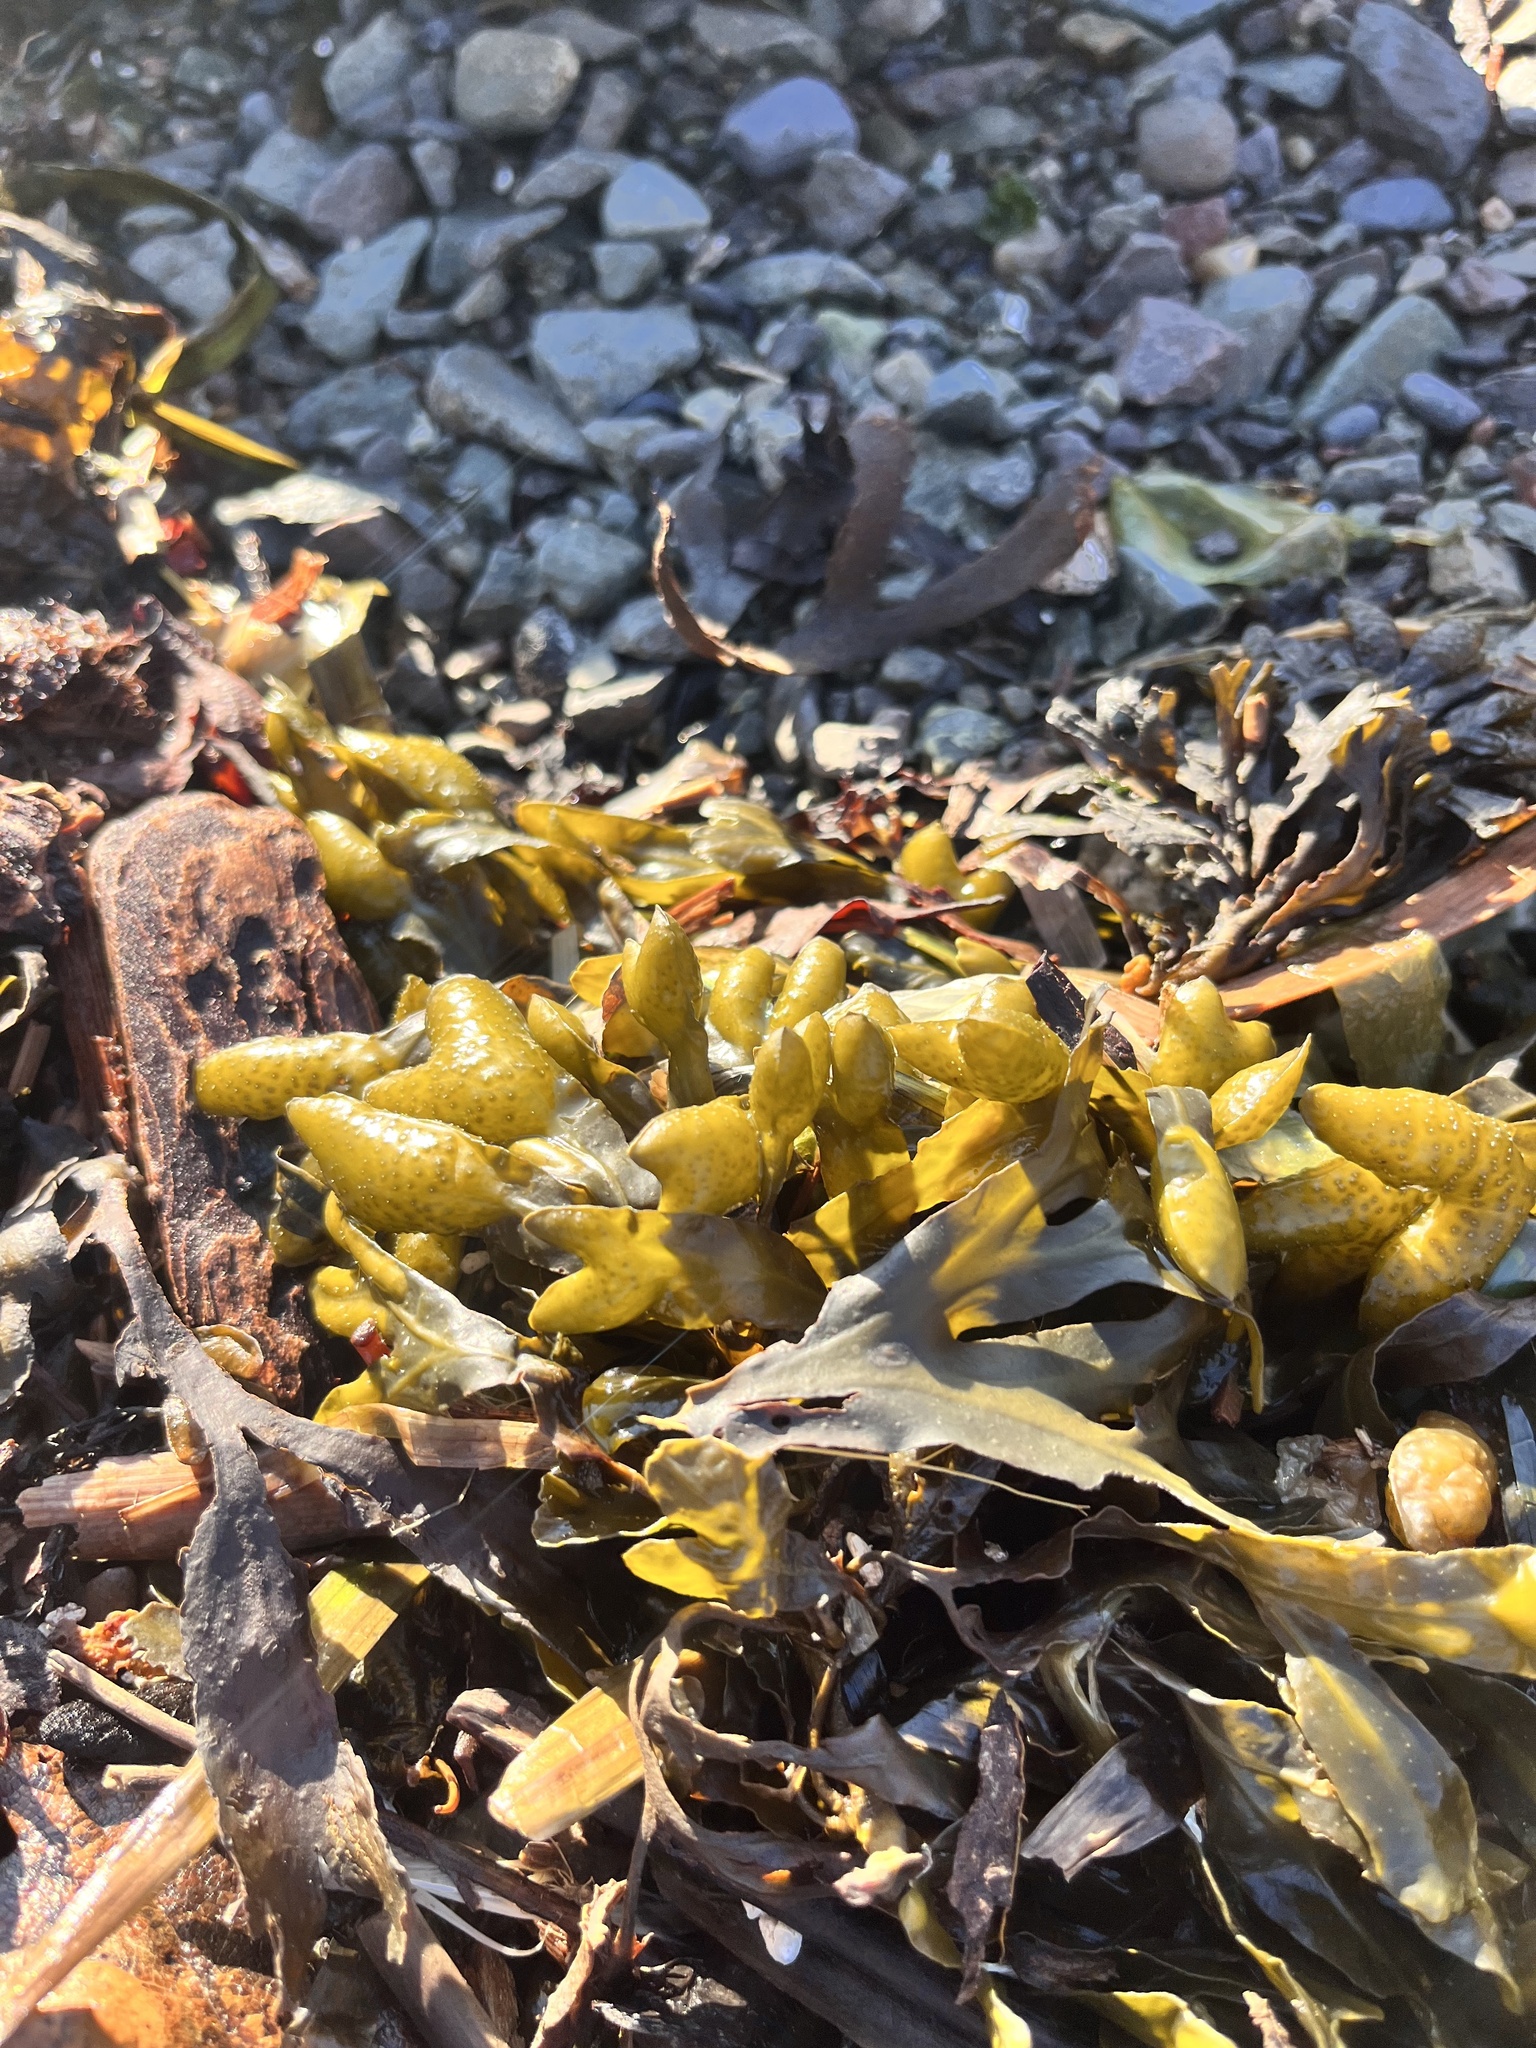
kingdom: Chromista
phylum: Ochrophyta
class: Phaeophyceae
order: Fucales
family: Fucaceae
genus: Fucus
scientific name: Fucus distichus
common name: Rockweed
